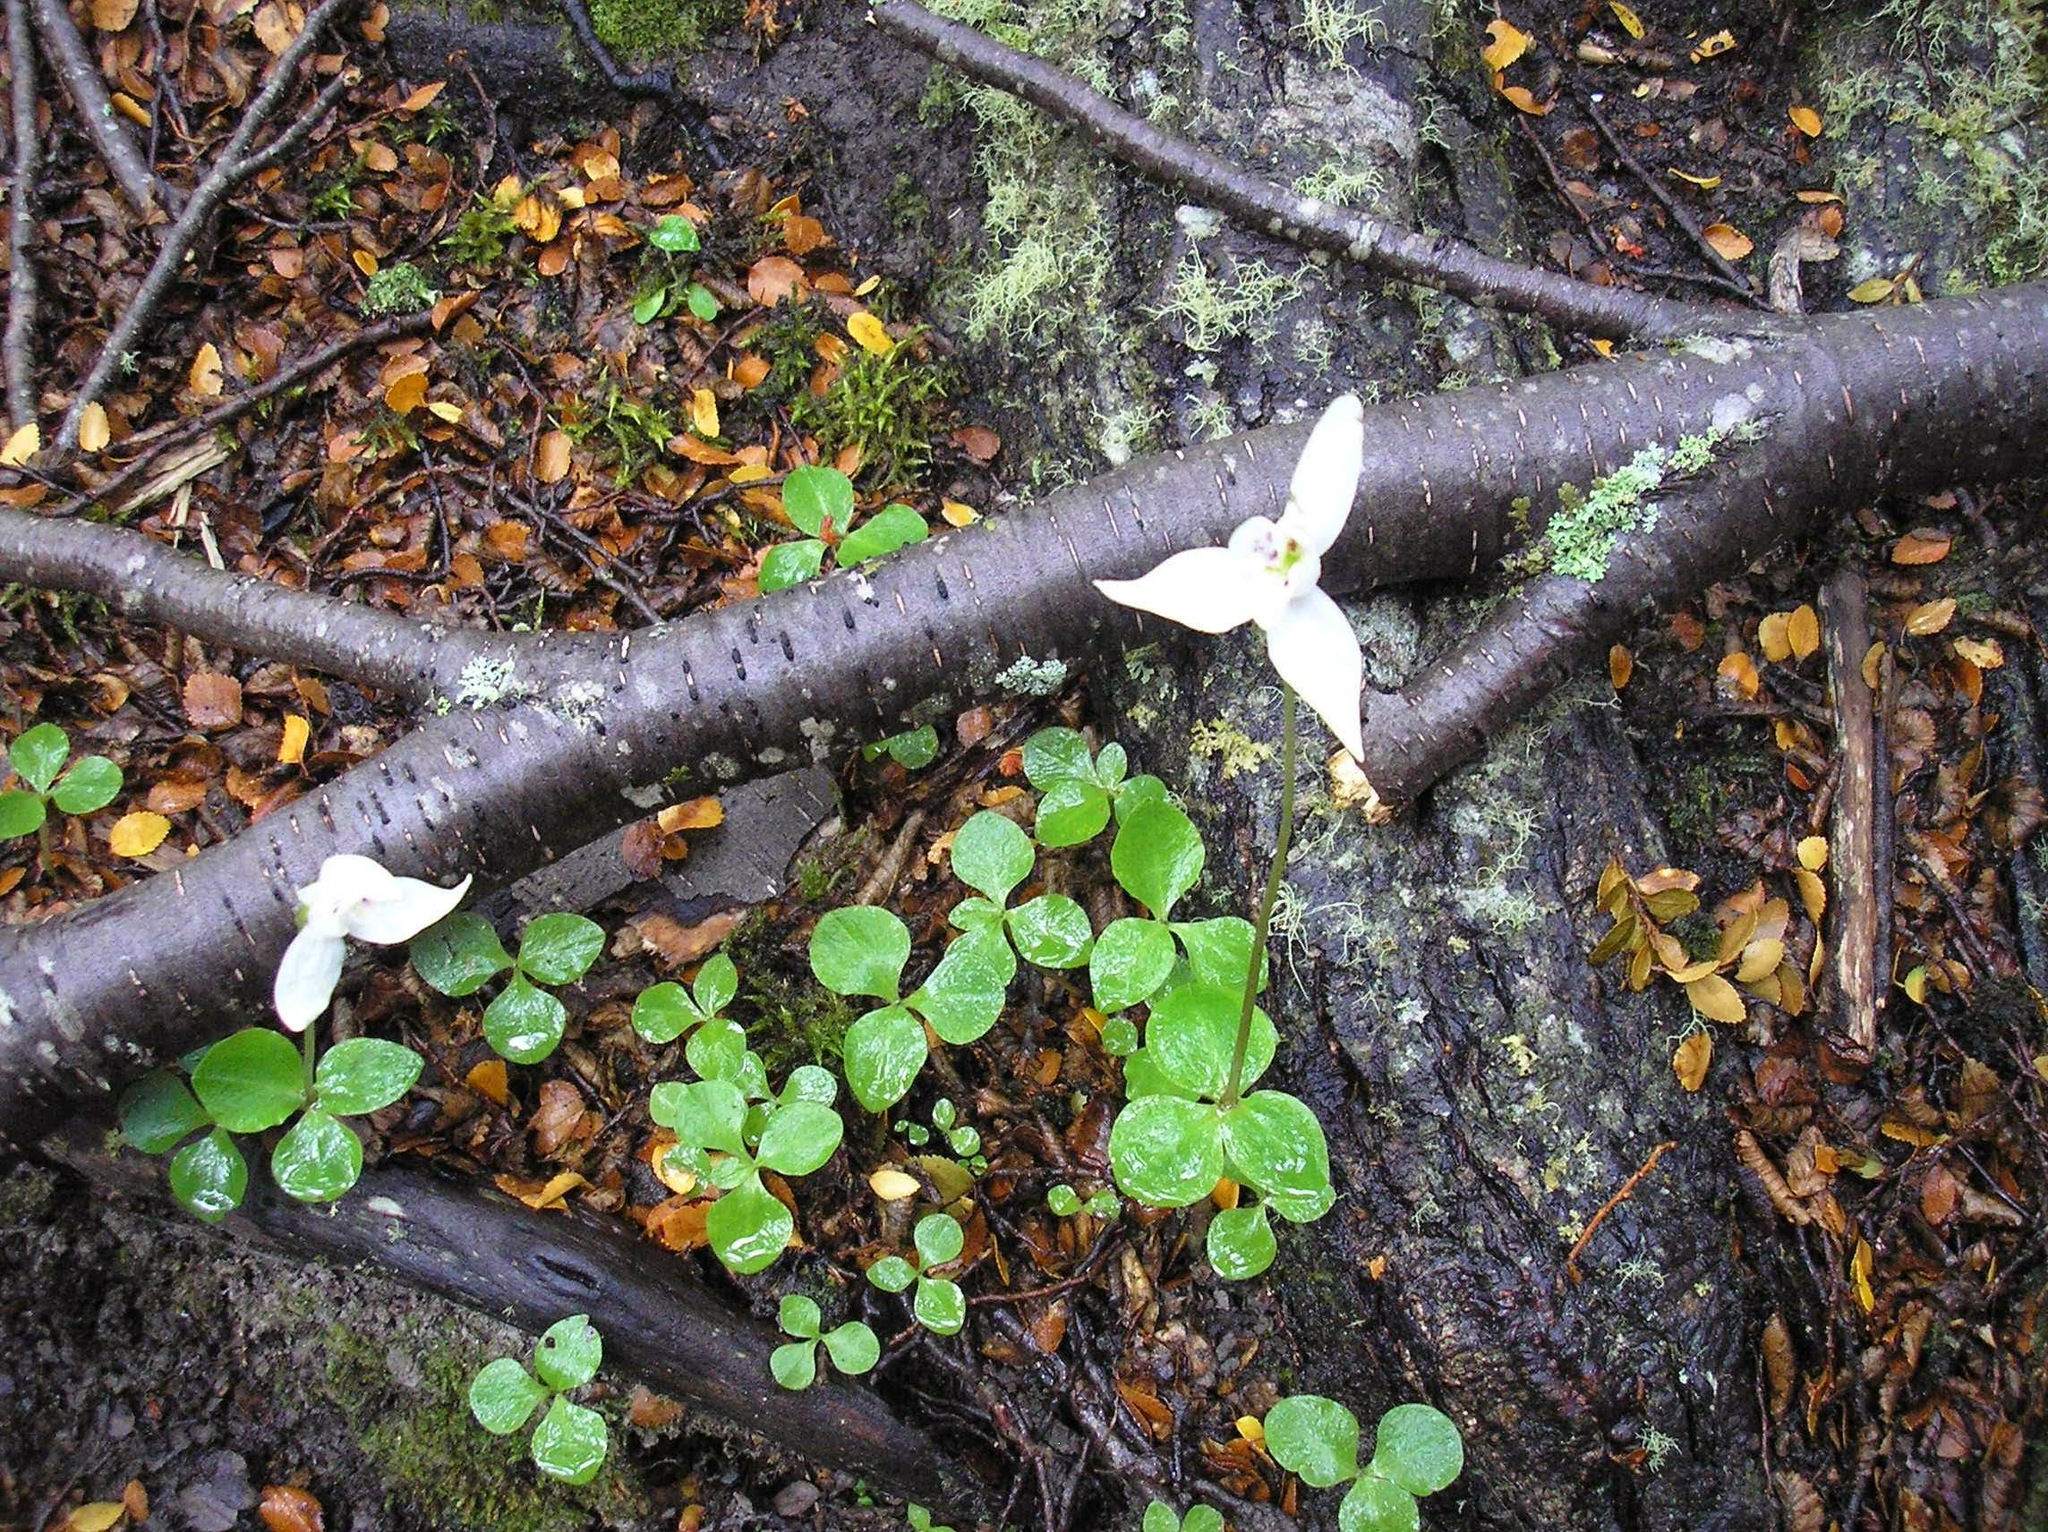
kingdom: Plantae
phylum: Tracheophyta
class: Liliopsida
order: Asparagales
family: Orchidaceae
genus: Codonorchis
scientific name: Codonorchis lessonii
